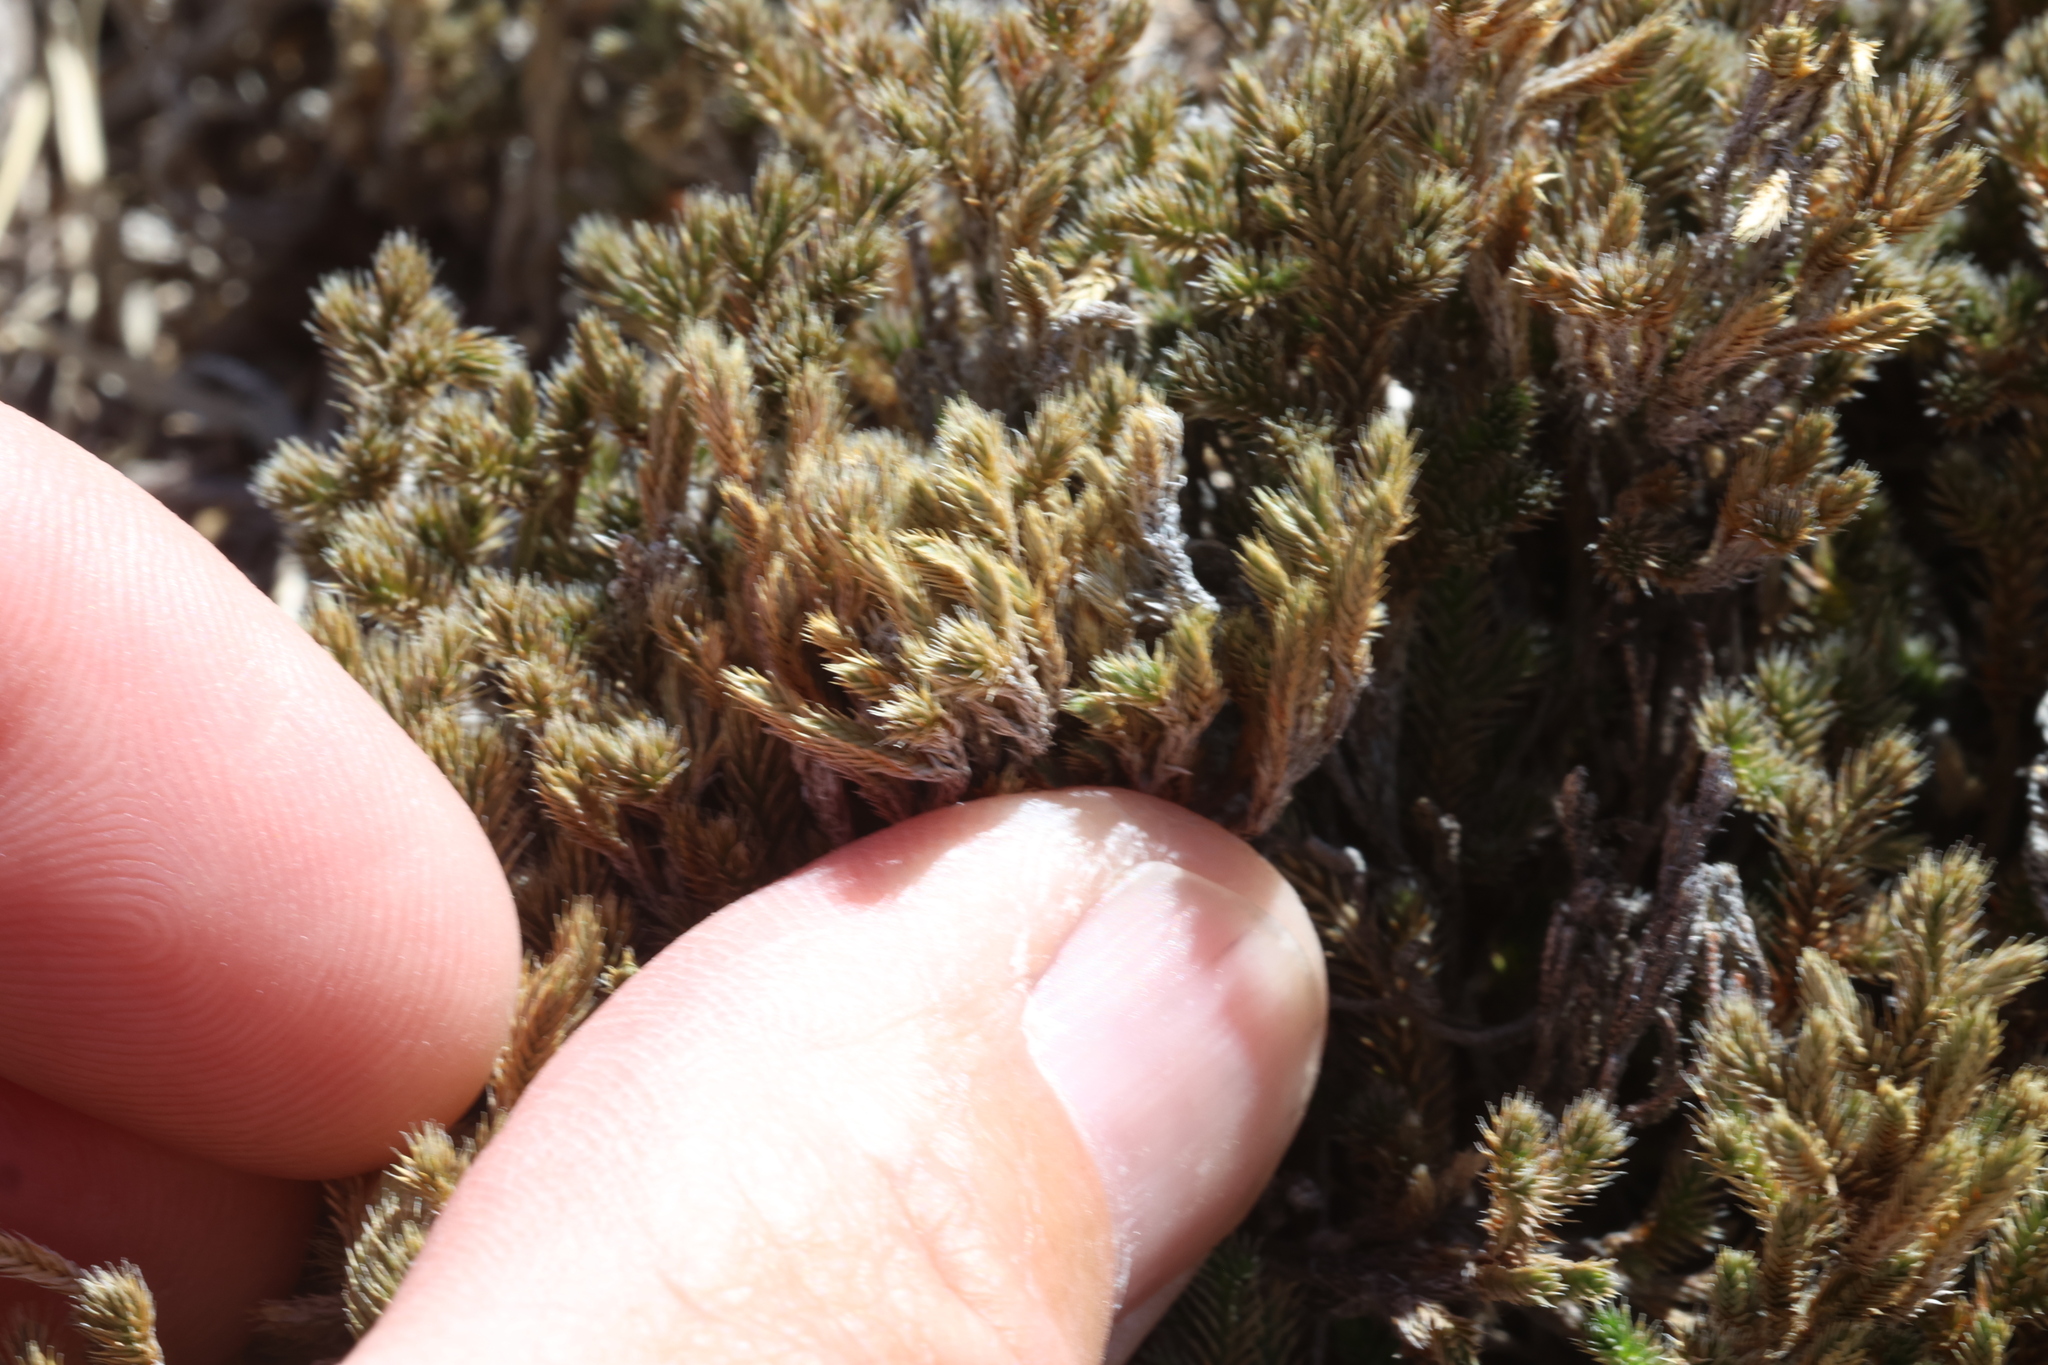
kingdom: Plantae
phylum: Tracheophyta
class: Lycopodiopsida
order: Selaginellales
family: Selaginellaceae
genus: Selaginella
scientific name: Selaginella rupincola
